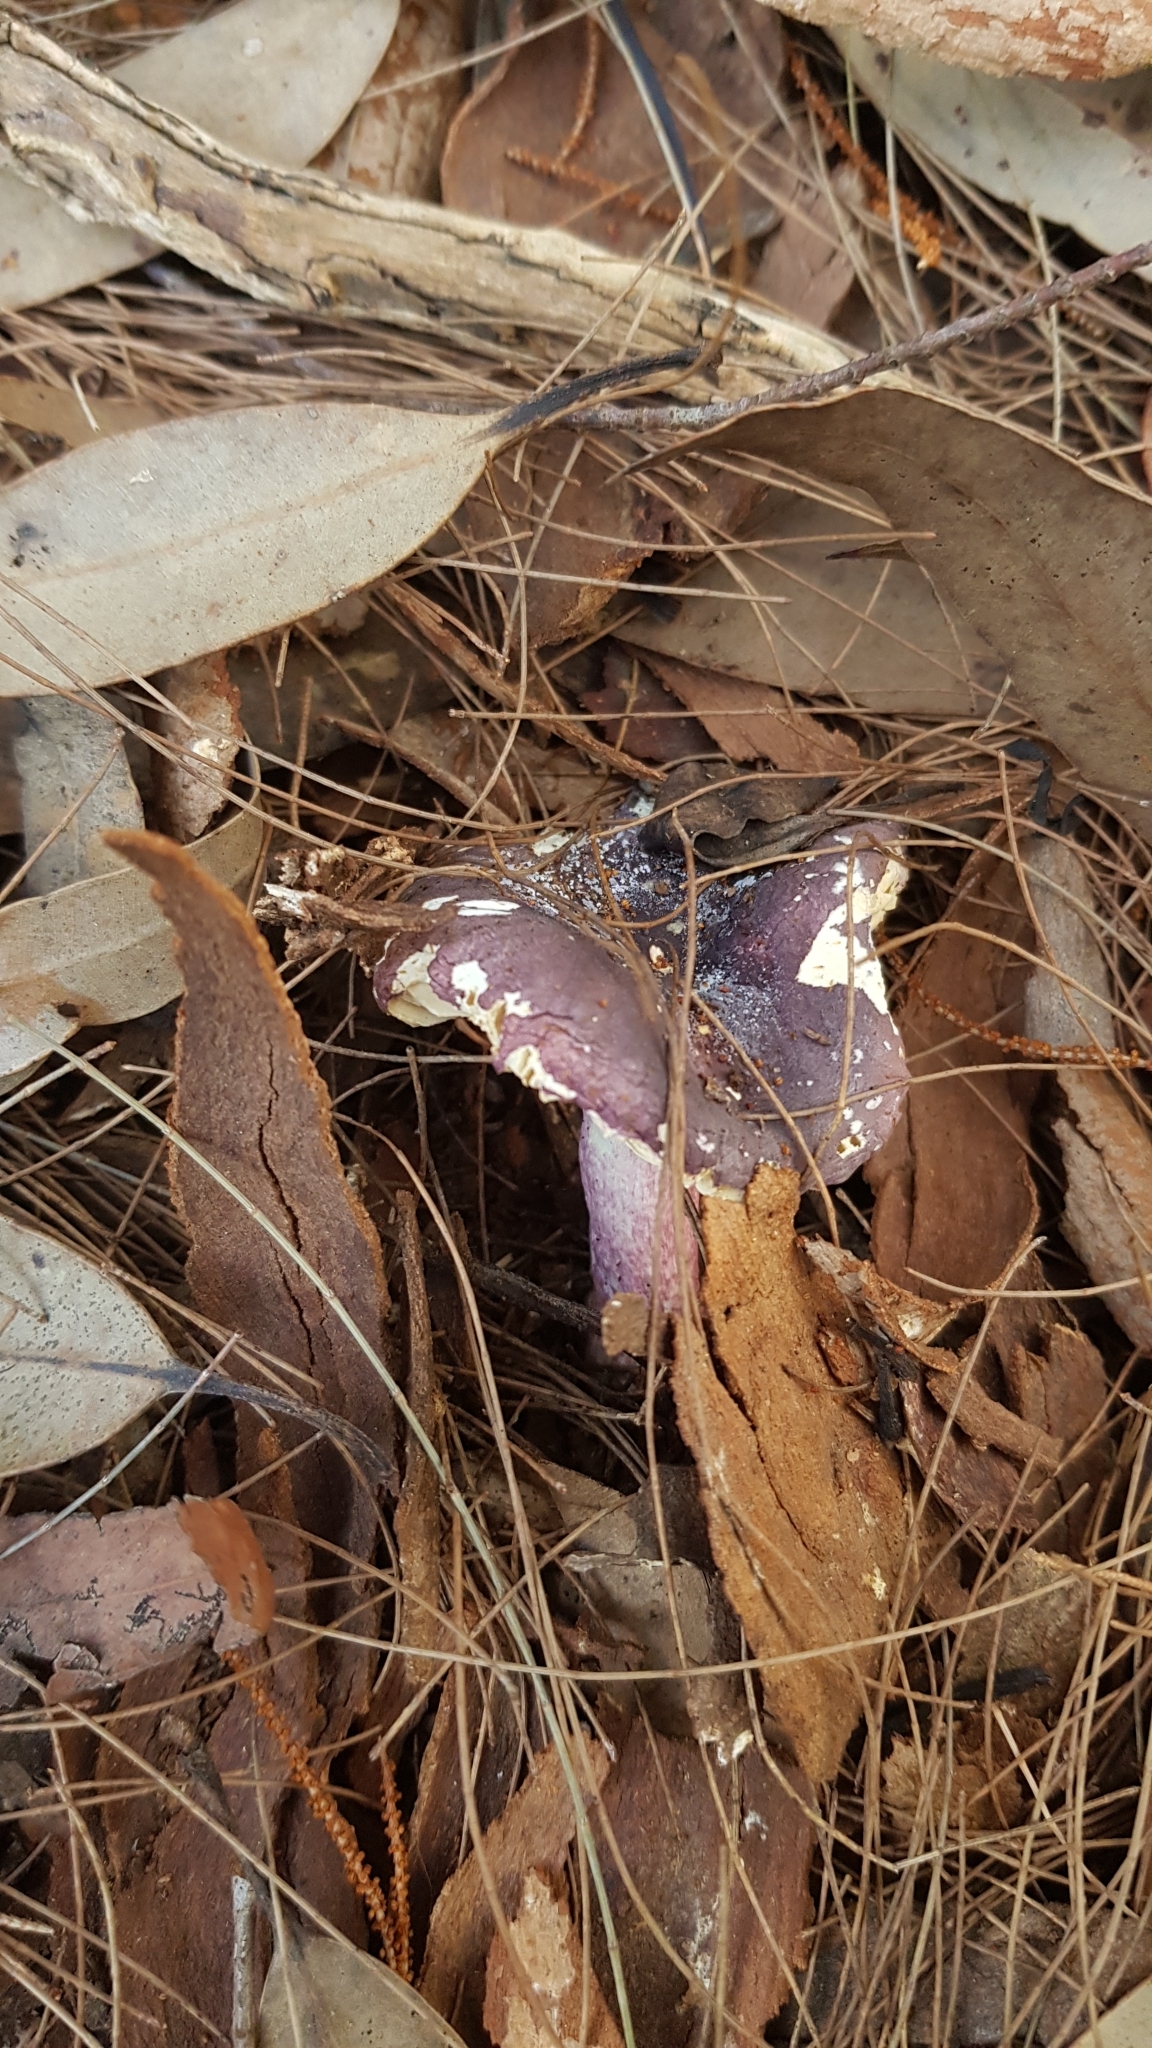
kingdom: Fungi
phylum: Basidiomycota
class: Agaricomycetes
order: Russulales
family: Russulaceae
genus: Russula
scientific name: Russula lenkunya
